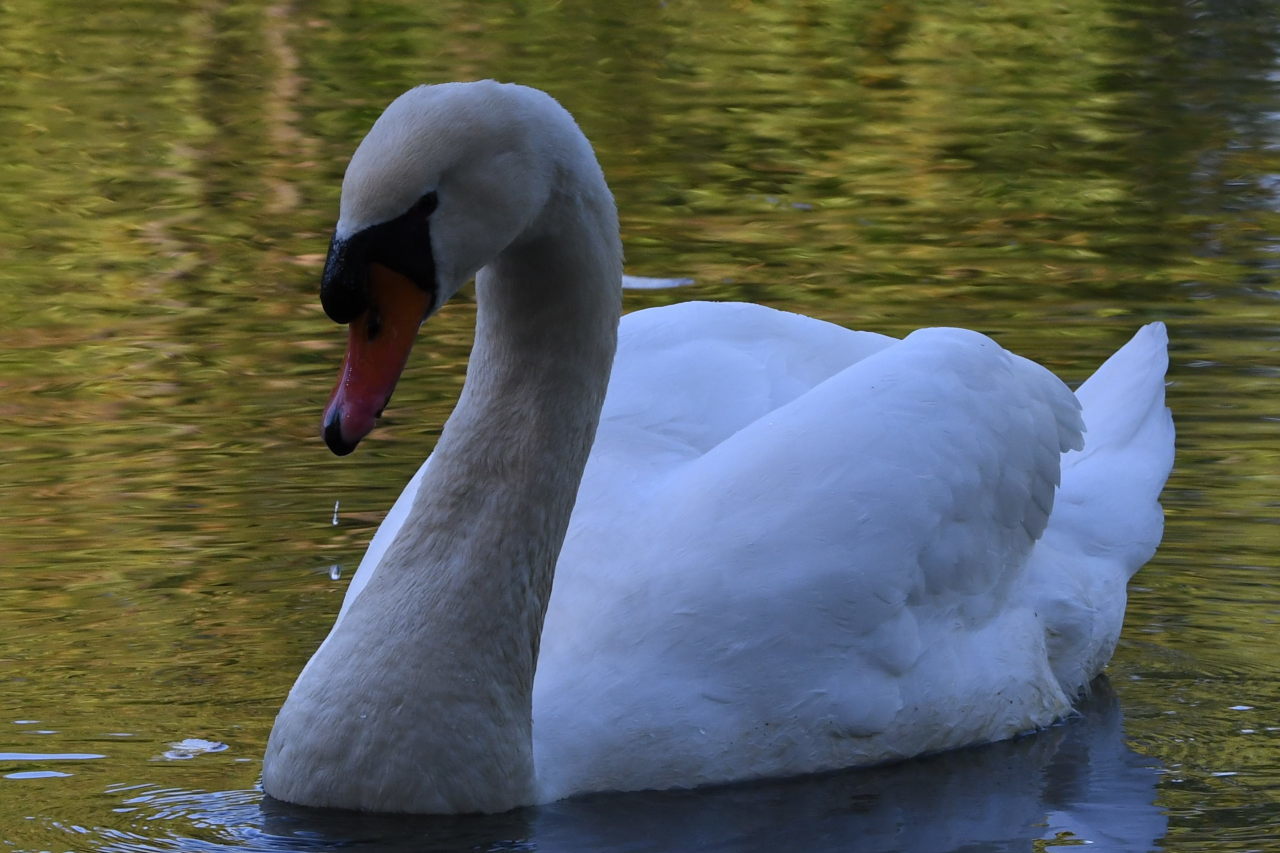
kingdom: Animalia
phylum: Chordata
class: Aves
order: Anseriformes
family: Anatidae
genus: Cygnus
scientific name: Cygnus olor
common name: Mute swan
